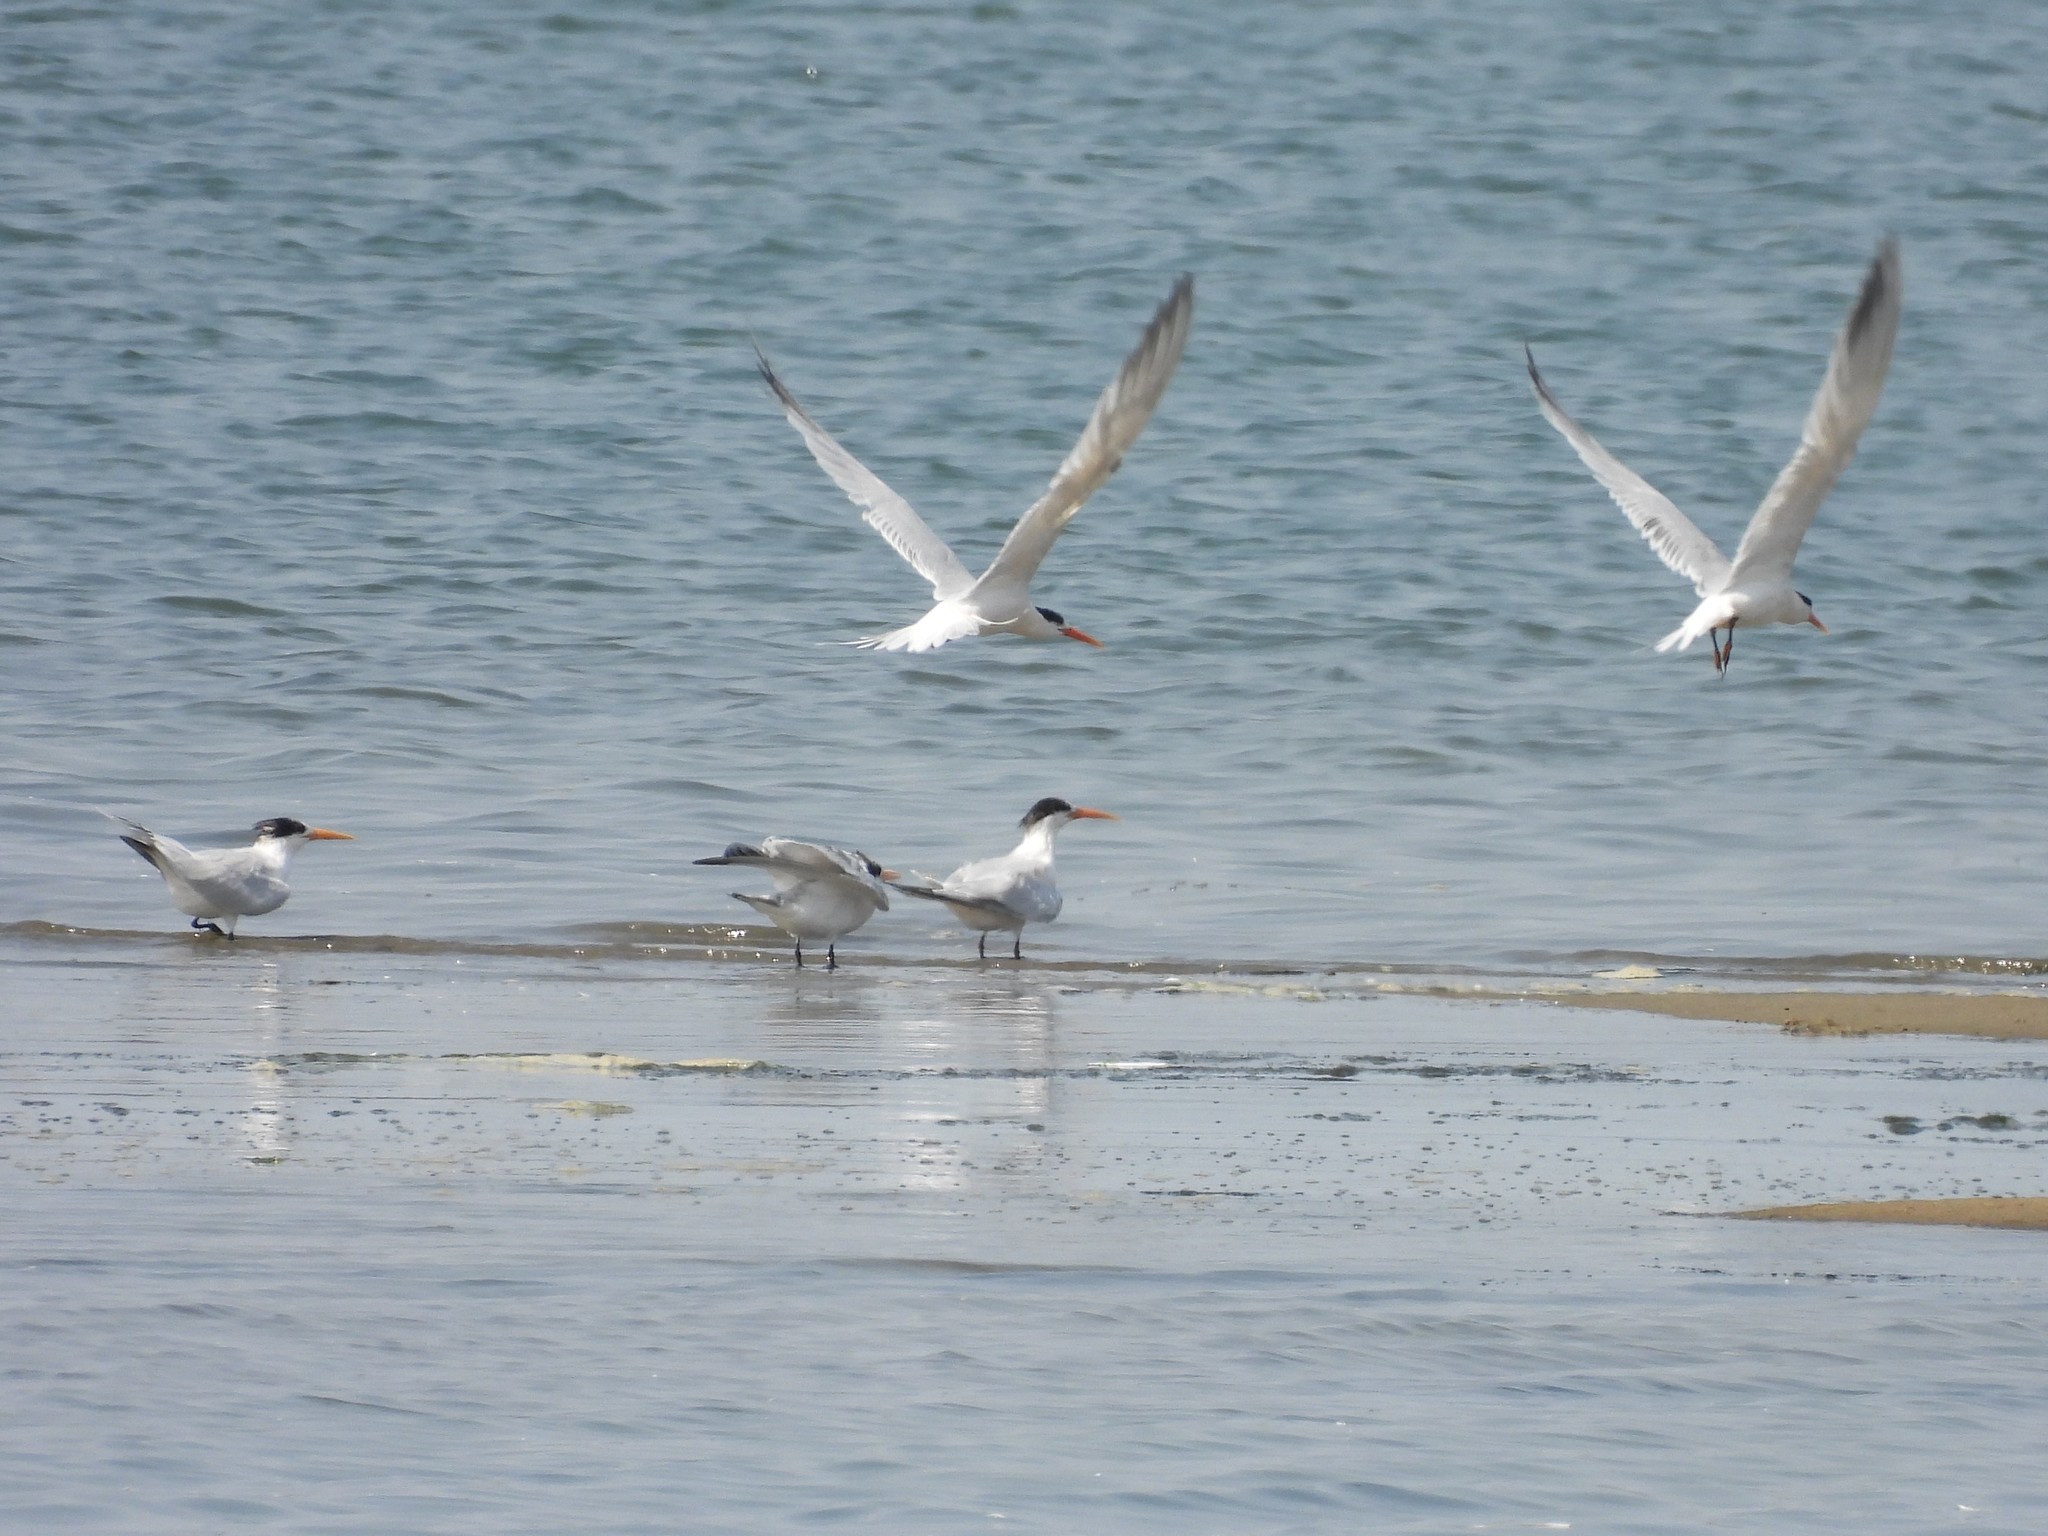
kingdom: Animalia
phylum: Chordata
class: Aves
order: Charadriiformes
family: Laridae
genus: Thalasseus
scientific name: Thalasseus elegans
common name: Elegant tern
